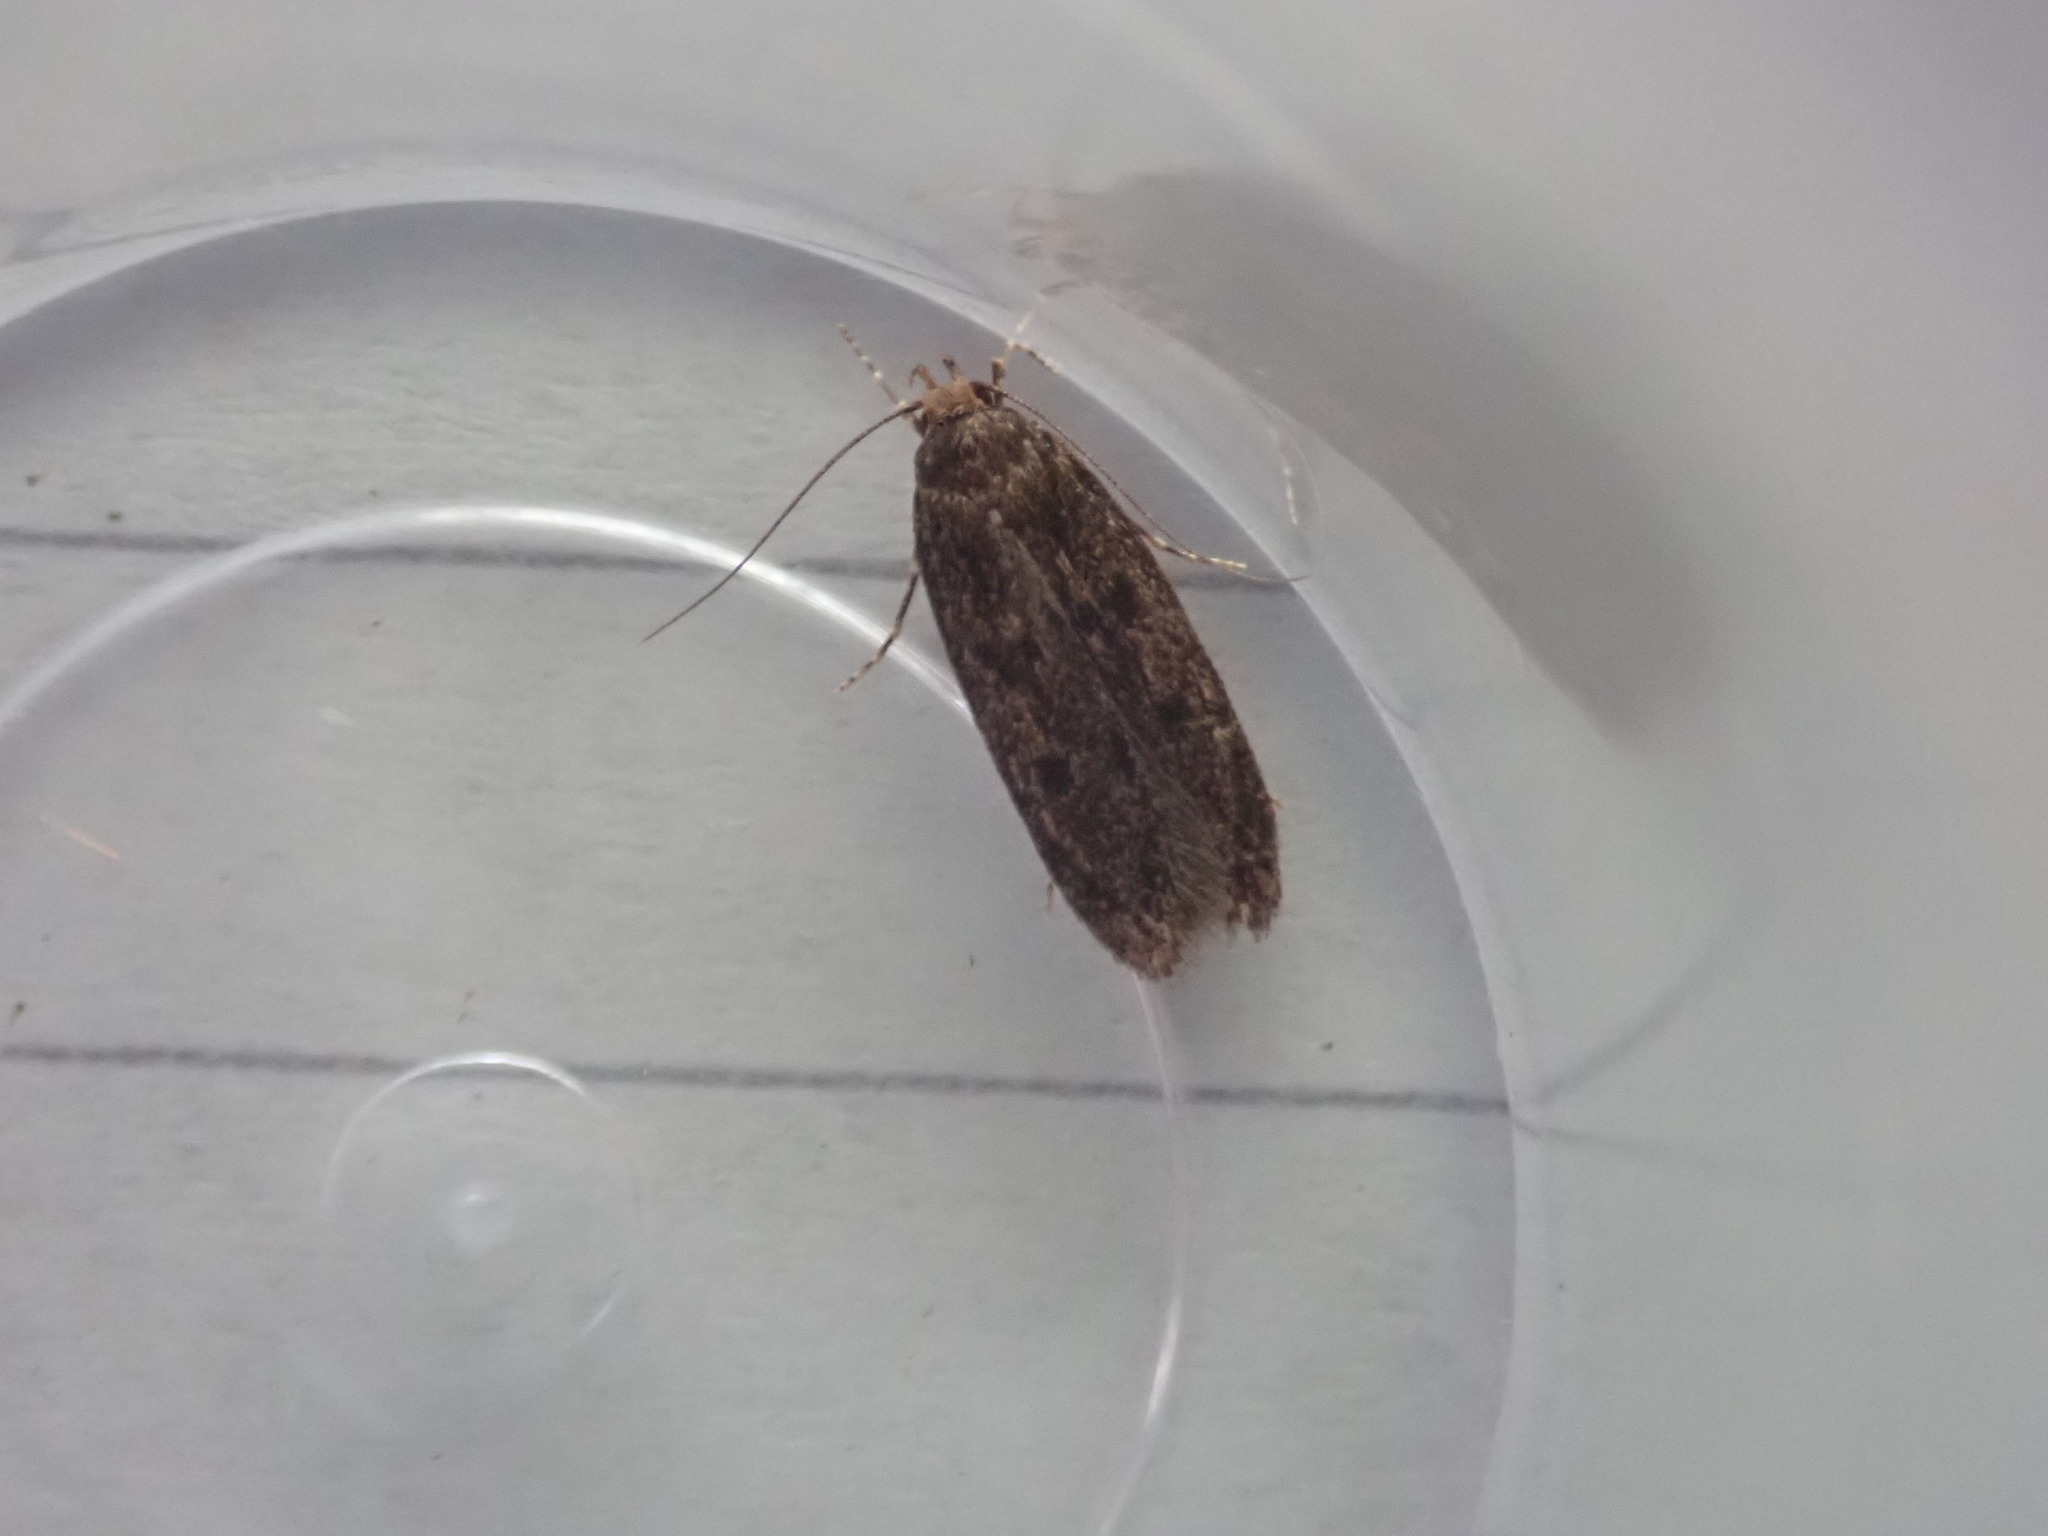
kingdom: Animalia
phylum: Arthropoda
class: Insecta
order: Lepidoptera
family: Oecophoridae
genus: Hofmannophila
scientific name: Hofmannophila pseudospretella
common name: Brown house moth
